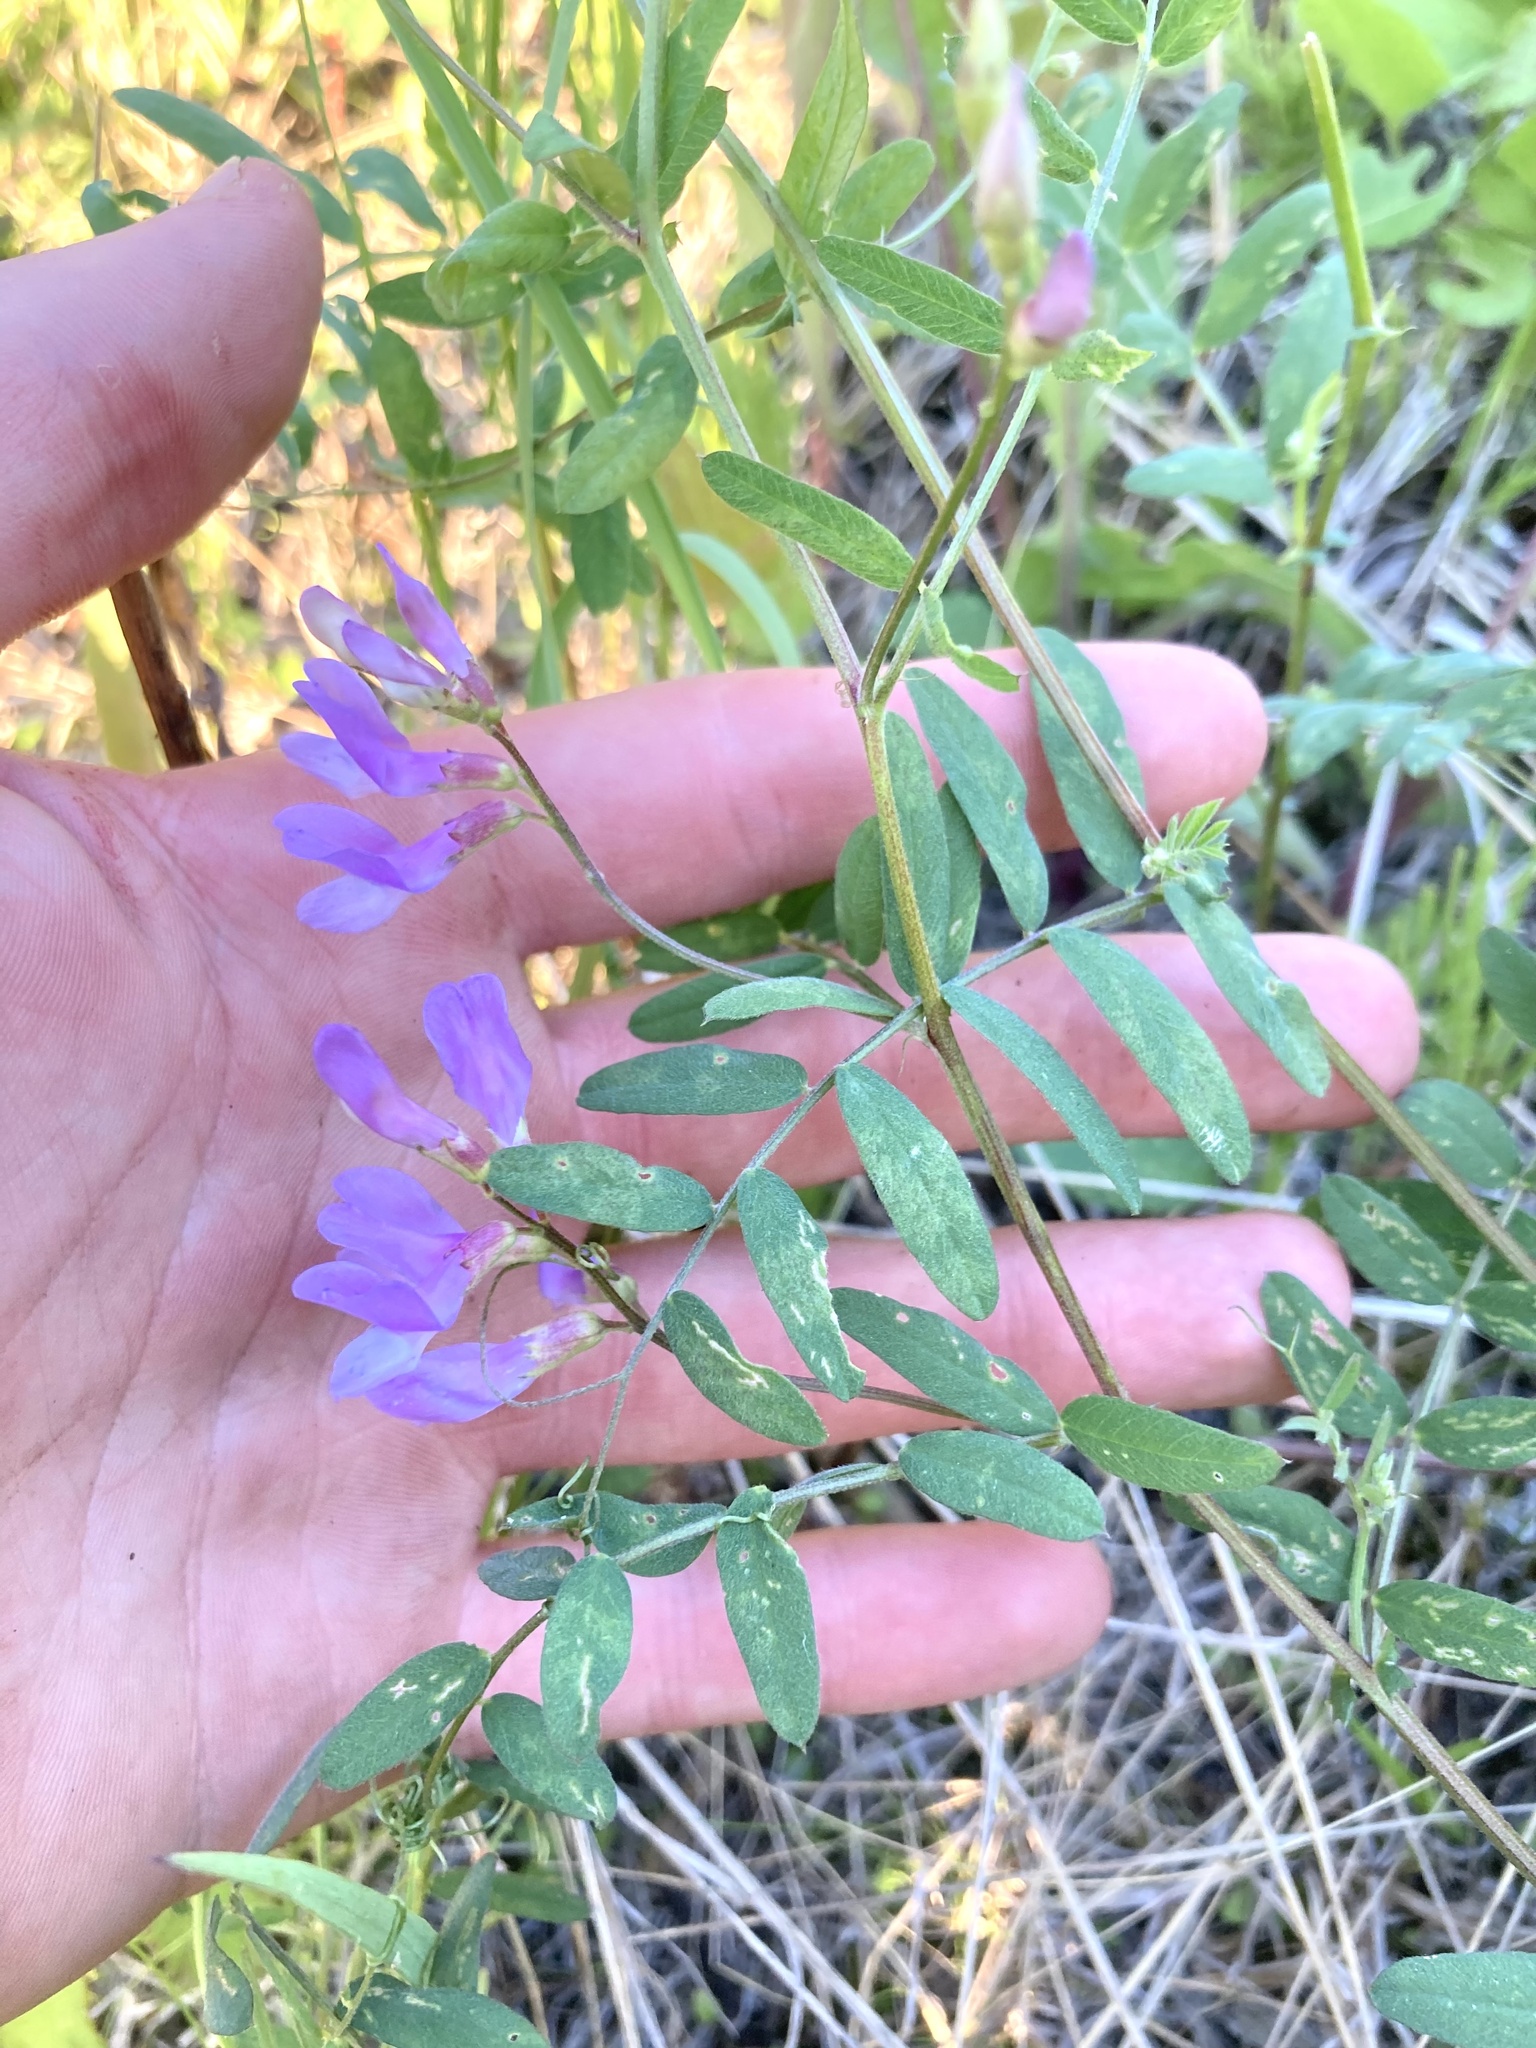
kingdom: Plantae
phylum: Tracheophyta
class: Magnoliopsida
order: Fabales
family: Fabaceae
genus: Vicia
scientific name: Vicia americana
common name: American vetch
